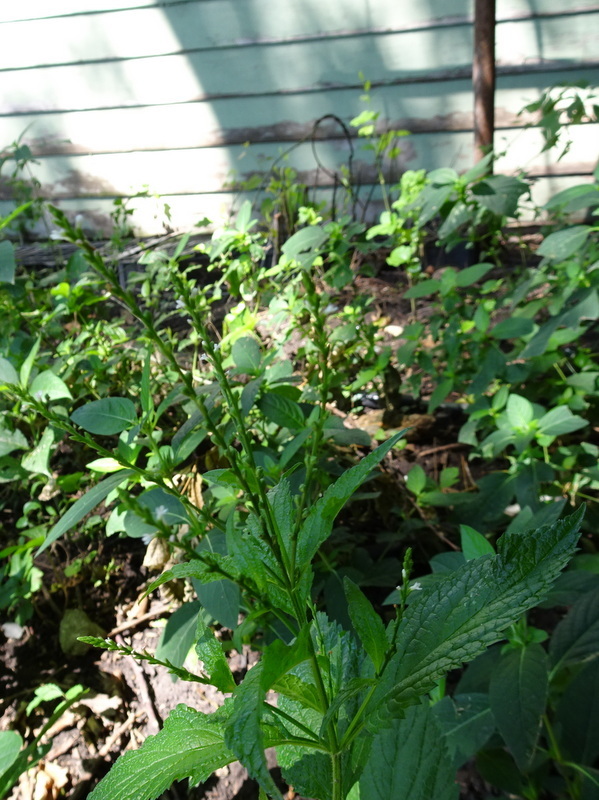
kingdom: Plantae
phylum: Tracheophyta
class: Magnoliopsida
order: Lamiales
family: Verbenaceae
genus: Verbena
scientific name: Verbena urticifolia
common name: Nettle-leaved vervain
